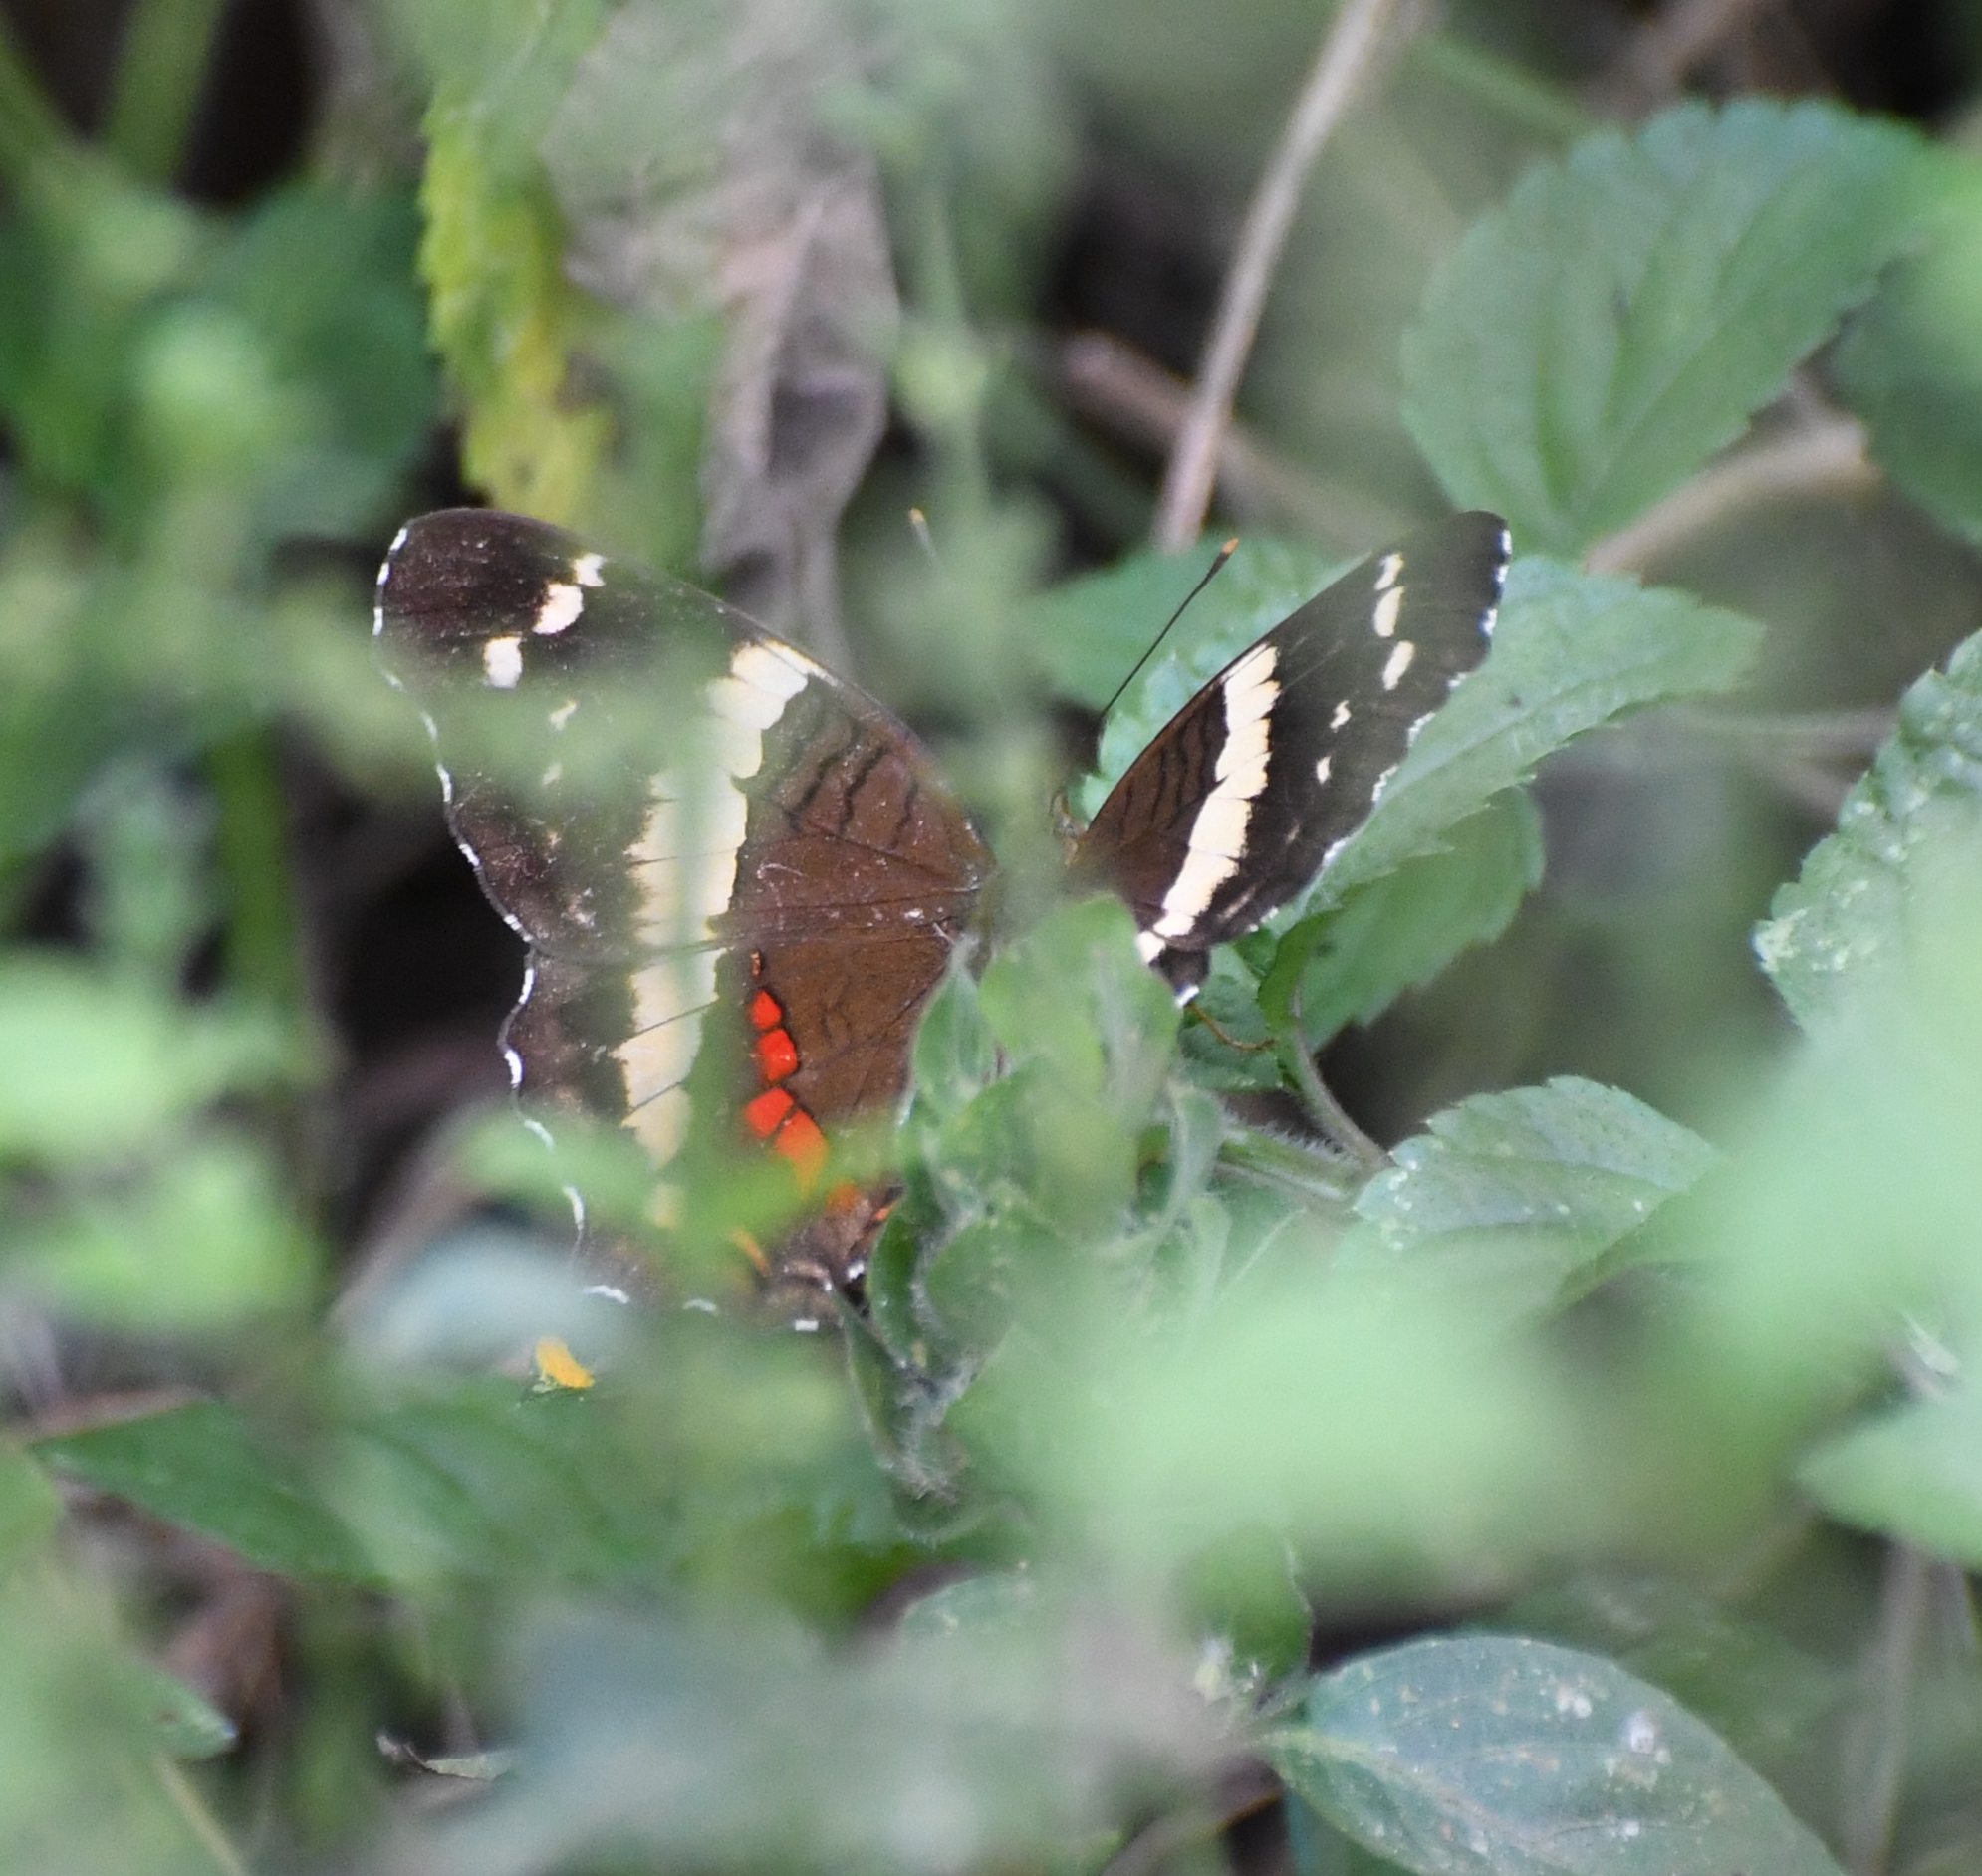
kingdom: Animalia
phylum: Arthropoda
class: Insecta
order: Lepidoptera
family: Nymphalidae
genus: Anartia
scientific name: Anartia fatima
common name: Banded peacock
